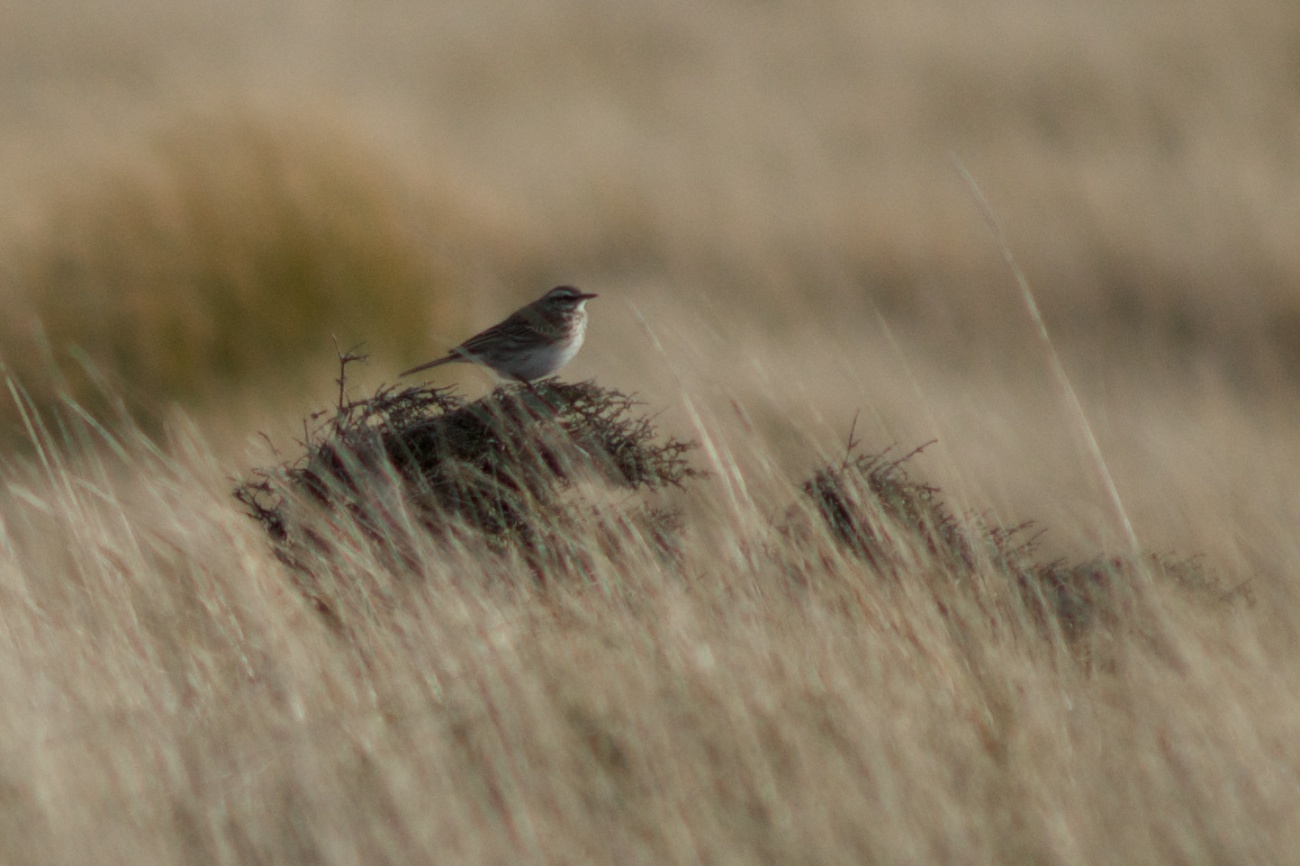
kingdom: Animalia
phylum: Chordata
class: Aves
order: Passeriformes
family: Motacillidae
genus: Anthus
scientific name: Anthus novaeseelandiae
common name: New zealand pipit
